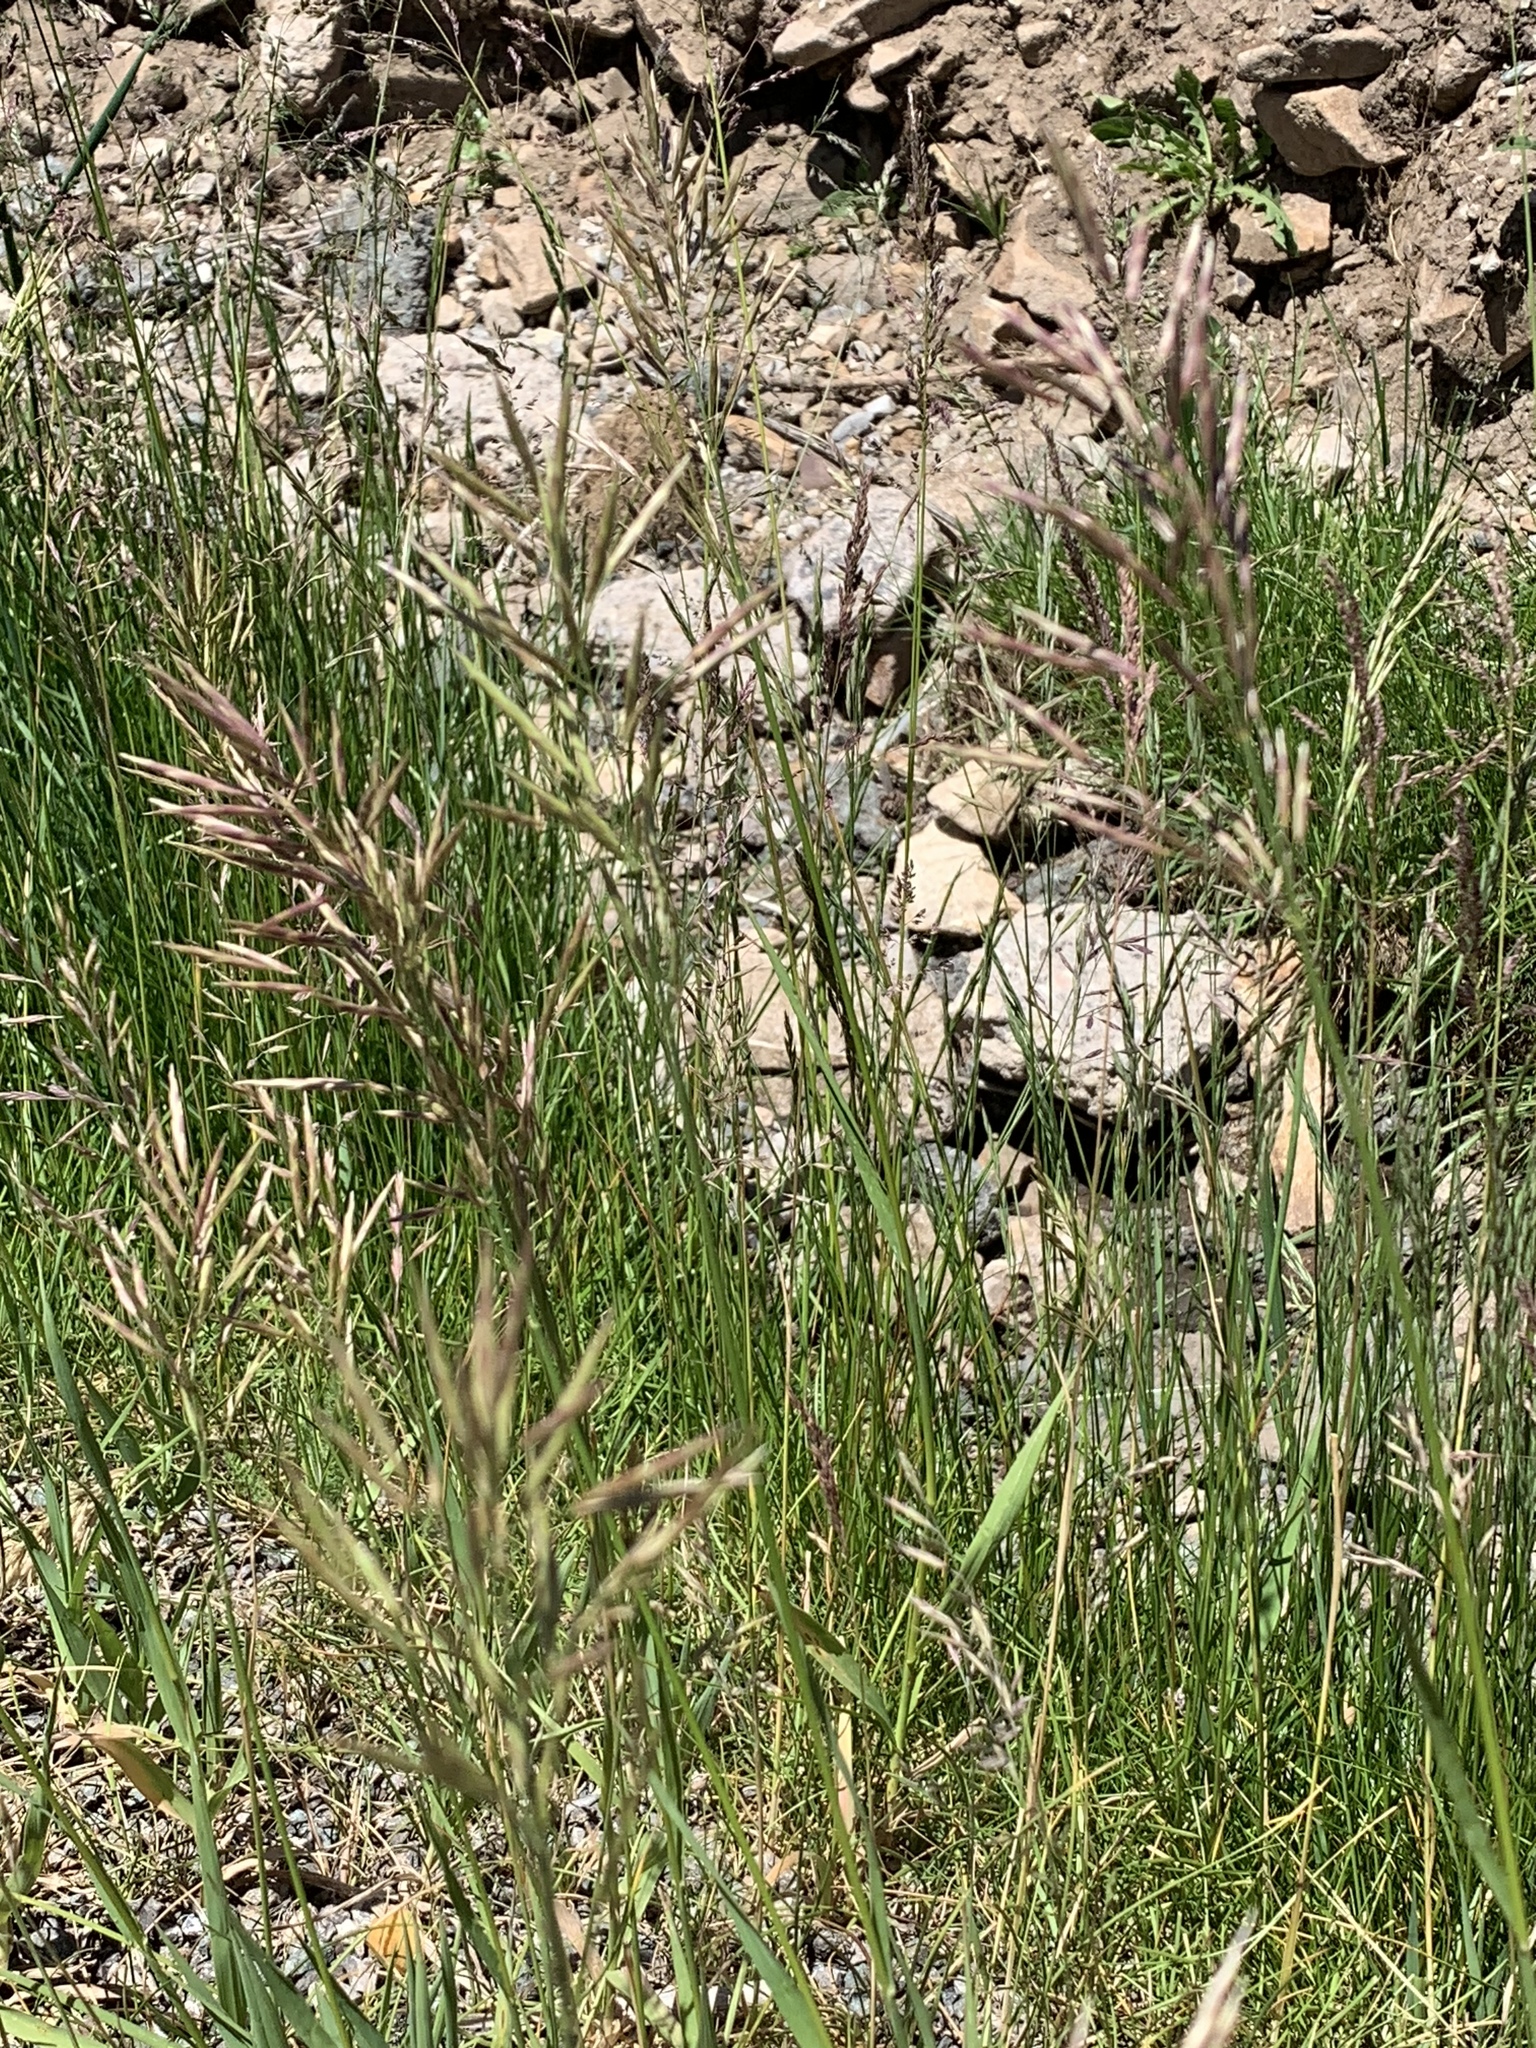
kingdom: Plantae
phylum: Tracheophyta
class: Liliopsida
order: Poales
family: Poaceae
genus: Bromus
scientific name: Bromus inermis
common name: Smooth brome
